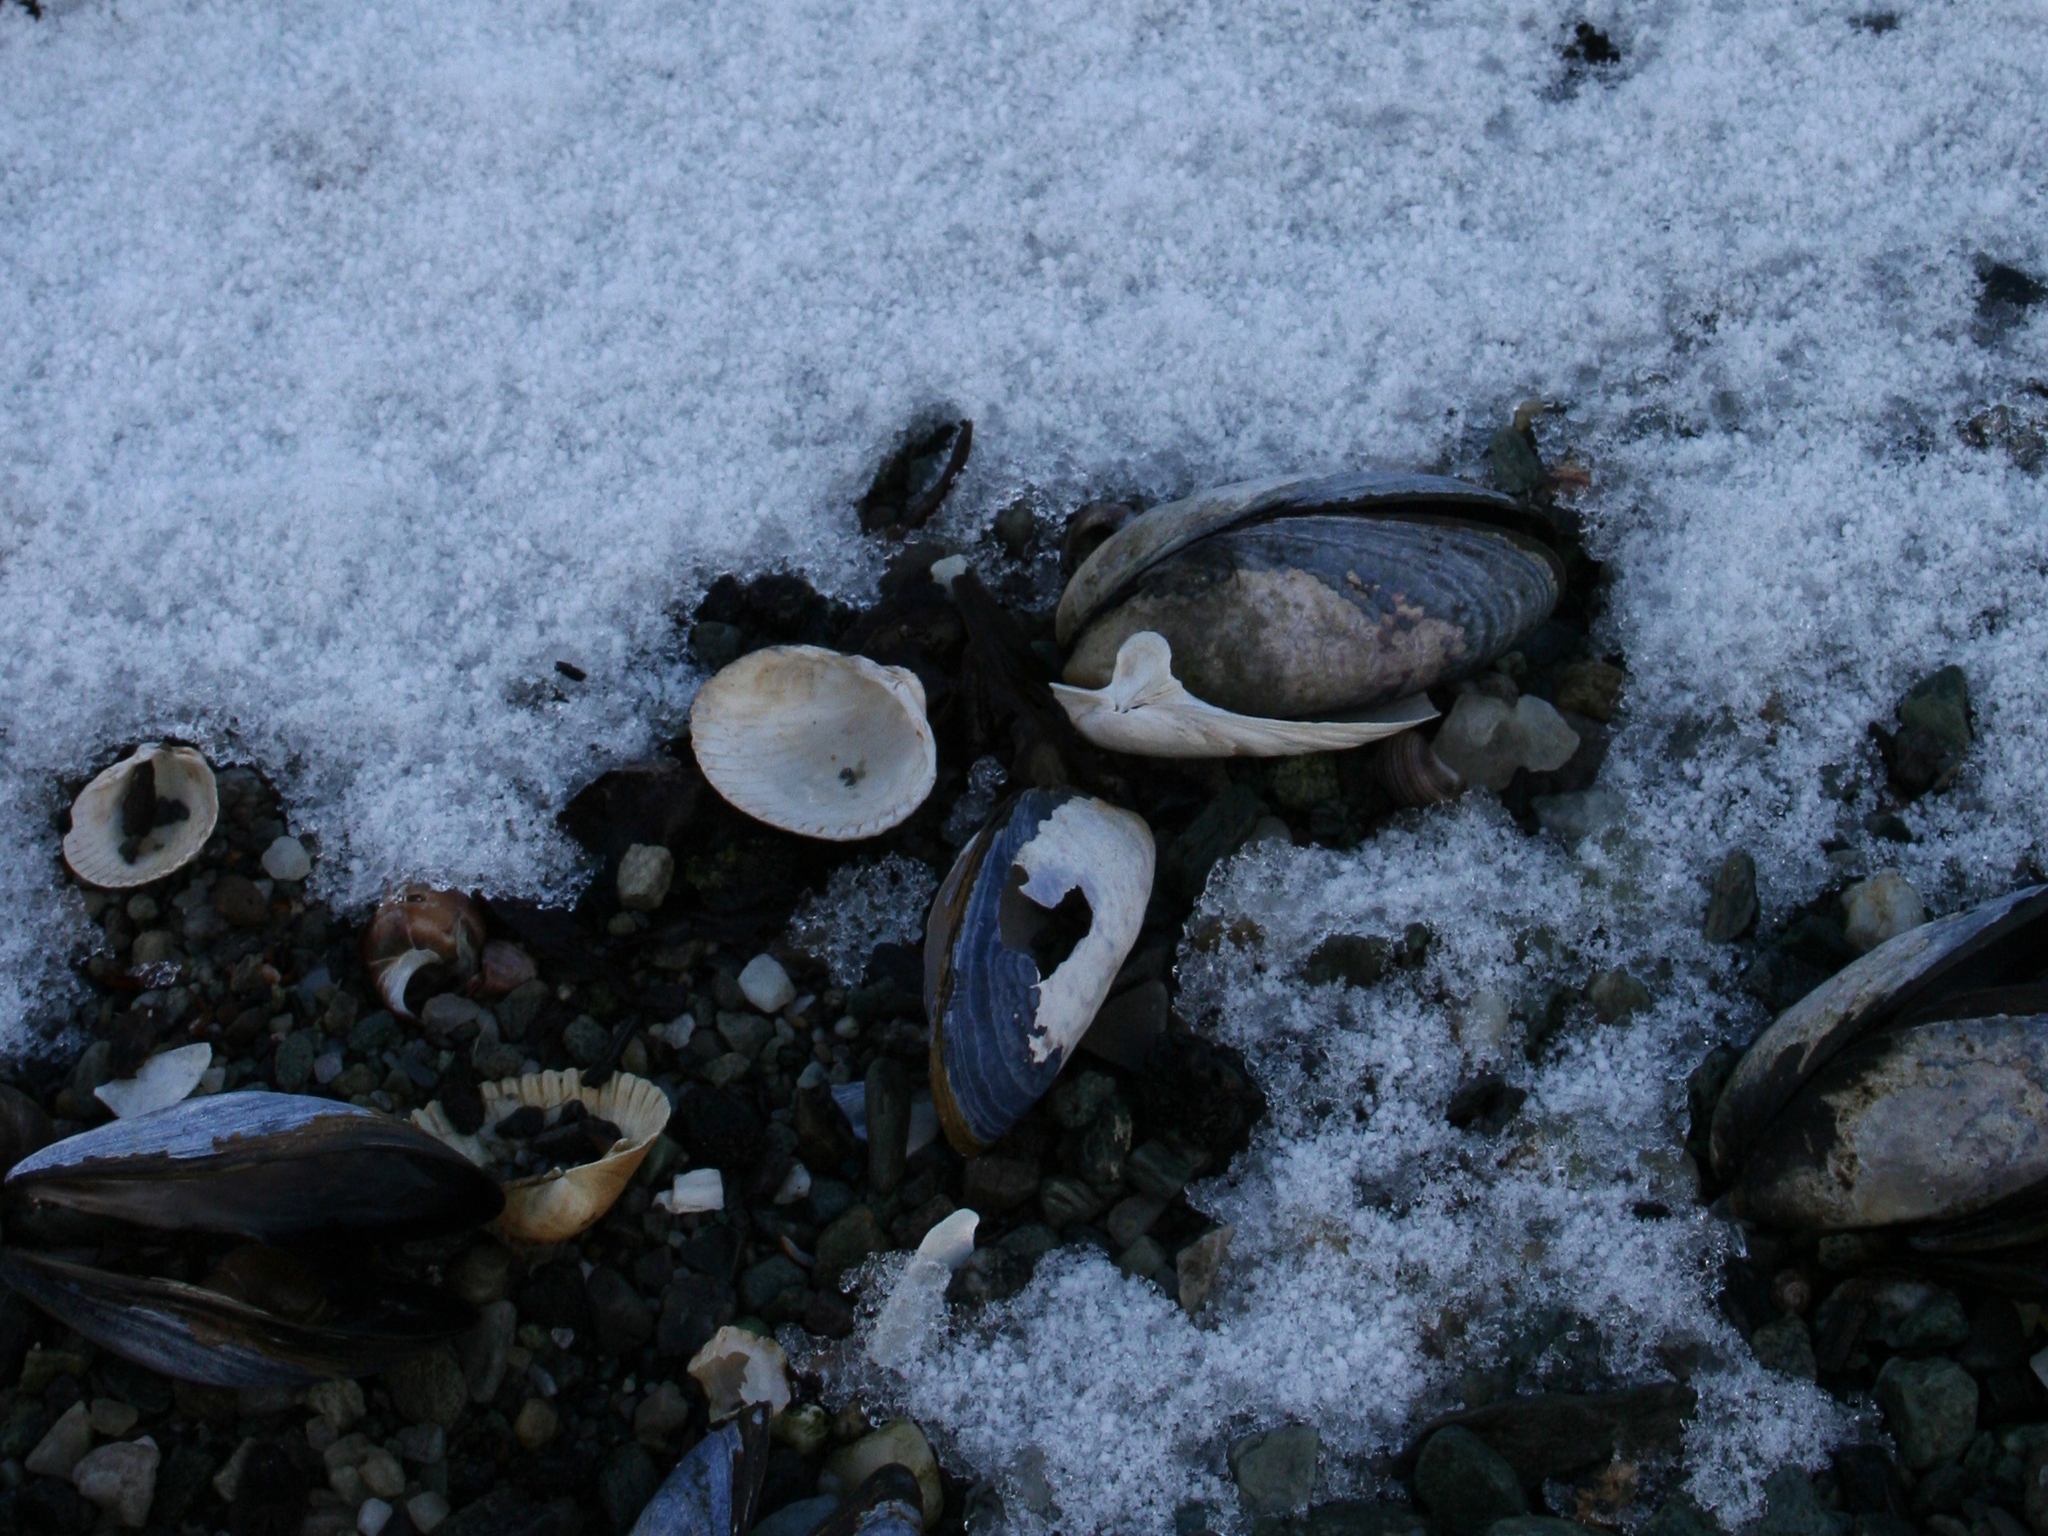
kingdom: Animalia
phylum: Mollusca
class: Bivalvia
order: Mytilida
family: Mytilidae
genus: Mytilus
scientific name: Mytilus edulis
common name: Blue mussel
